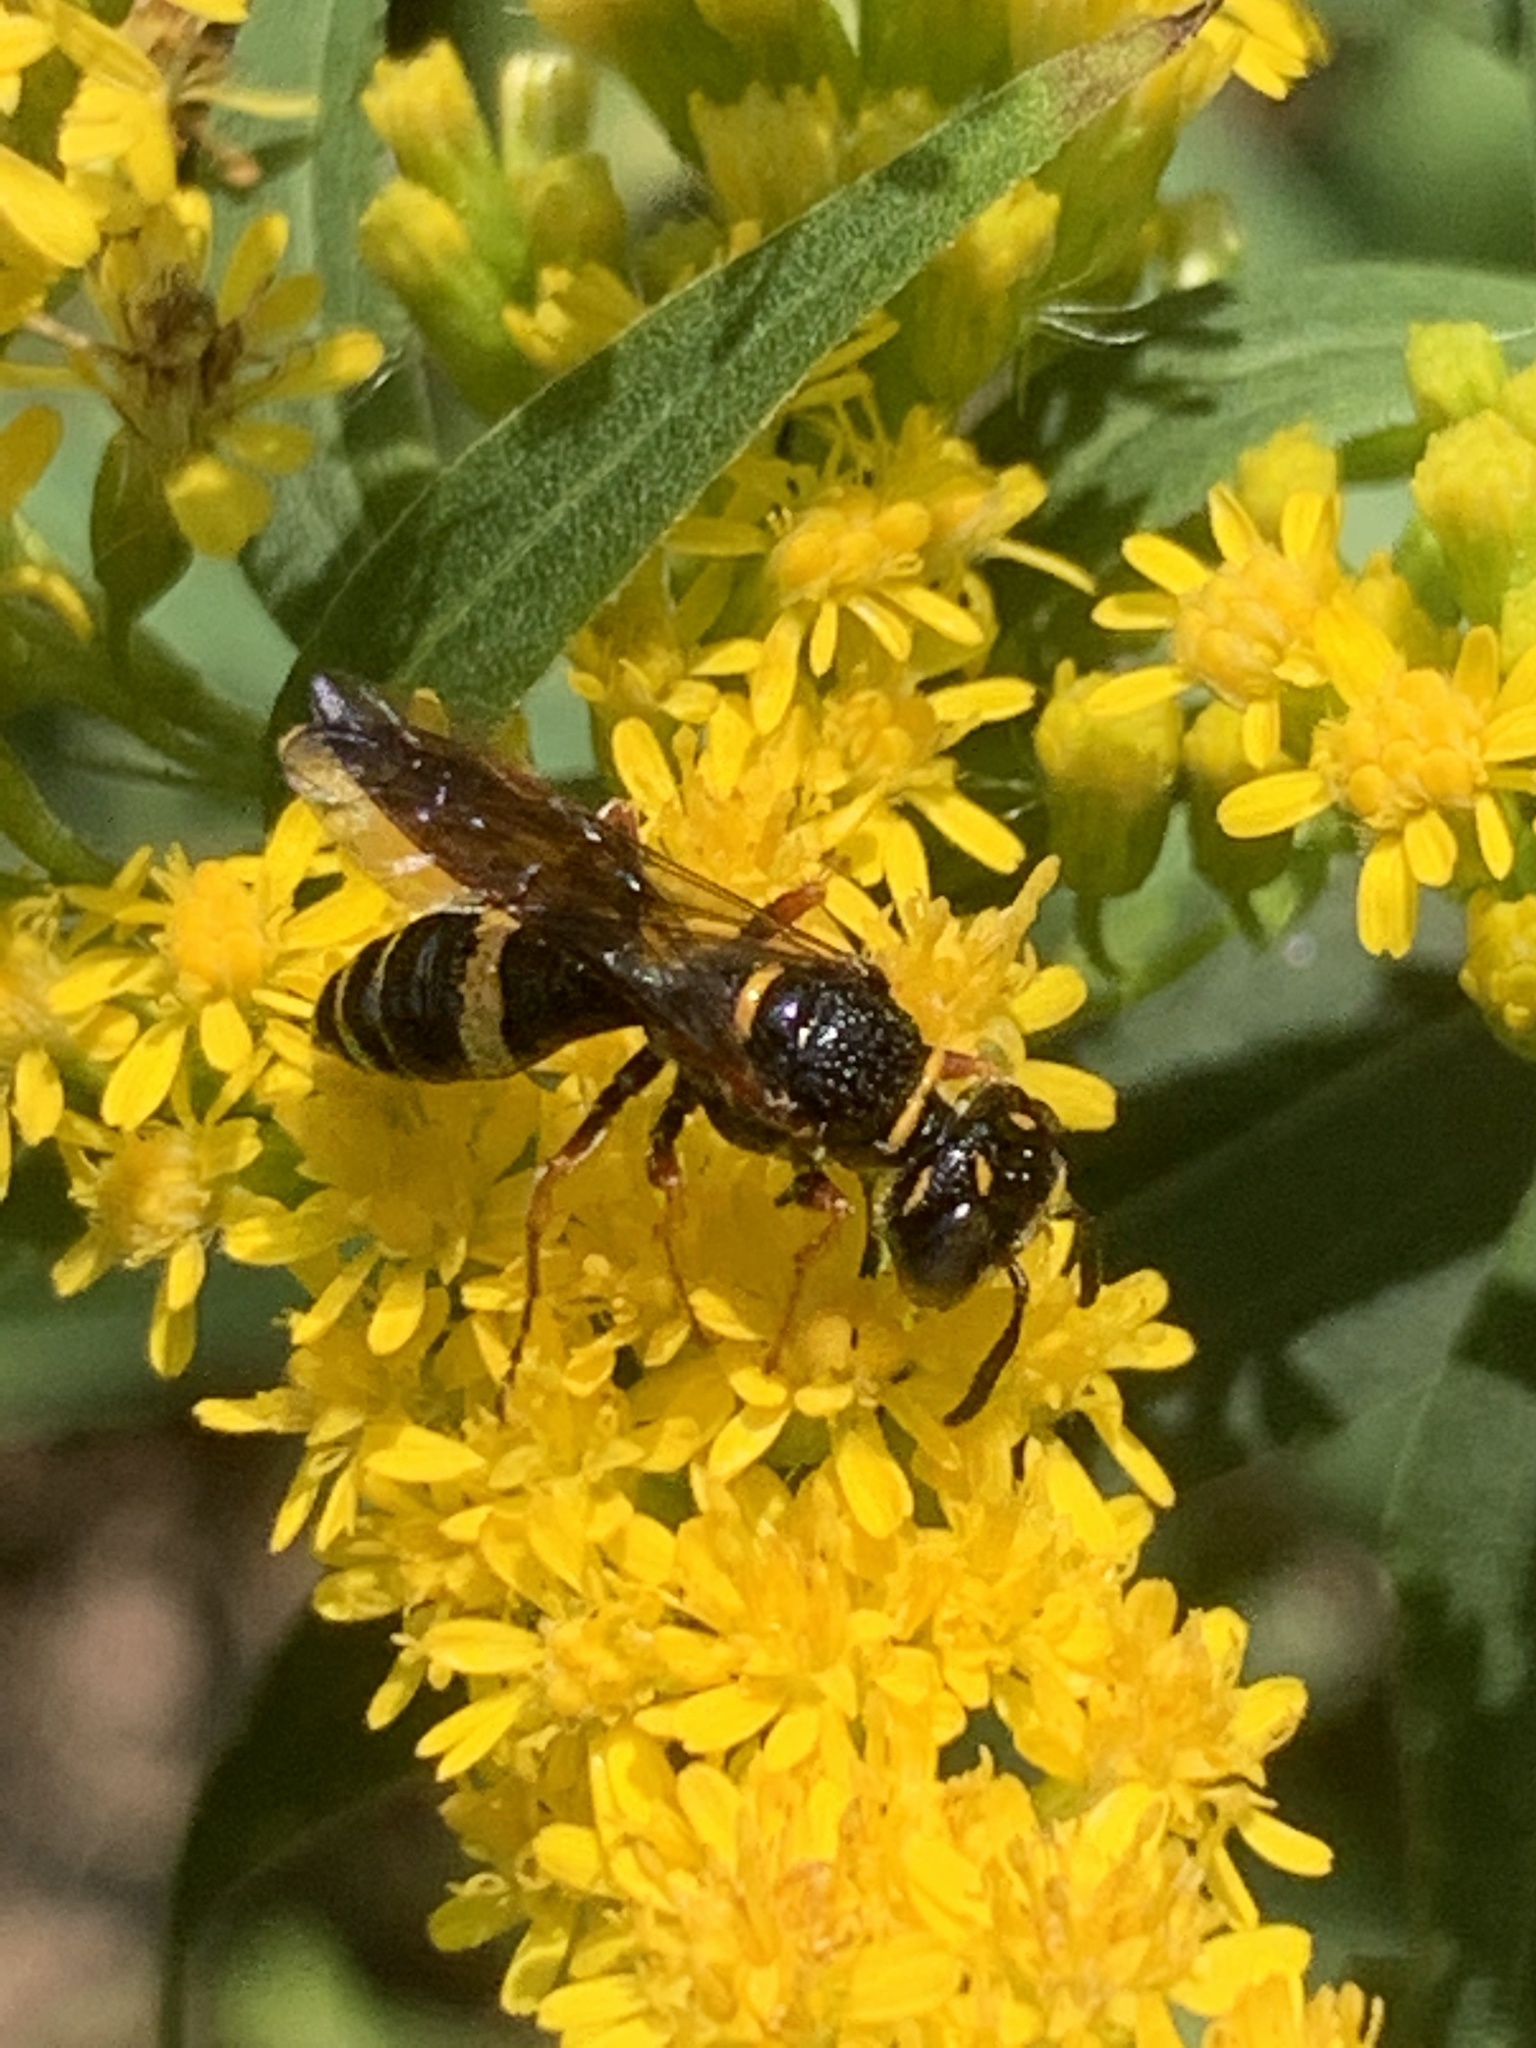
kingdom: Animalia
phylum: Arthropoda
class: Insecta
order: Hymenoptera
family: Crabronidae
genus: Philanthus
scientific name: Philanthus gibbosus
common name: Humped beewolf
